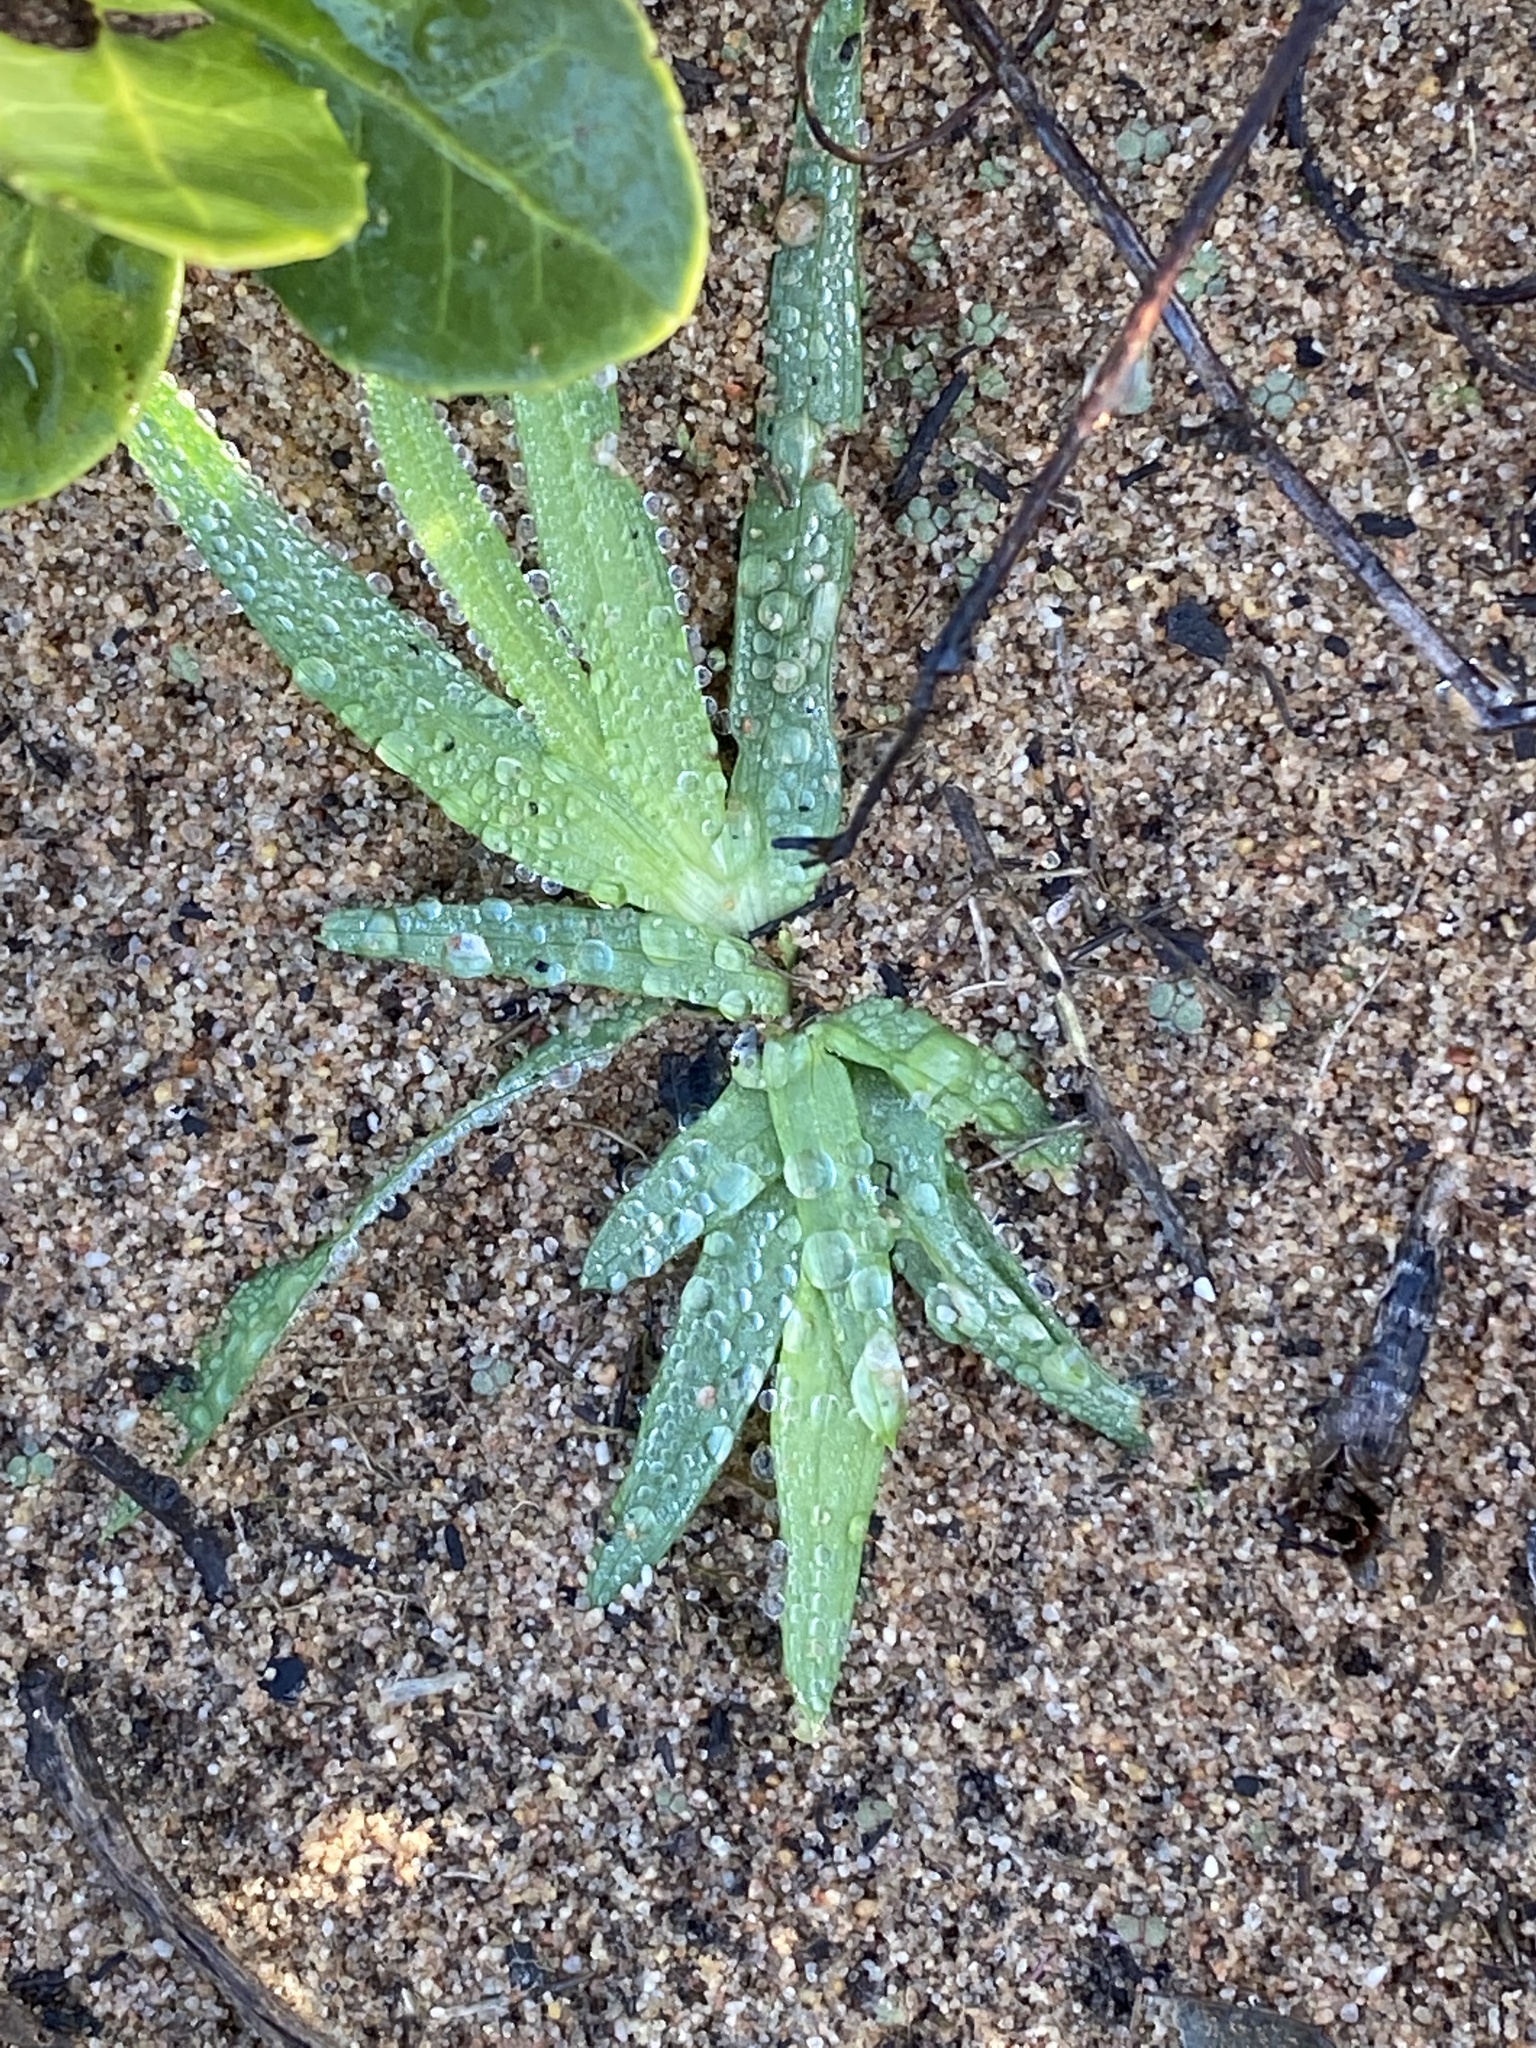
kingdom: Plantae
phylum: Tracheophyta
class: Liliopsida
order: Asparagales
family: Iridaceae
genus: Freesia
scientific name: Freesia caryophyllacea
